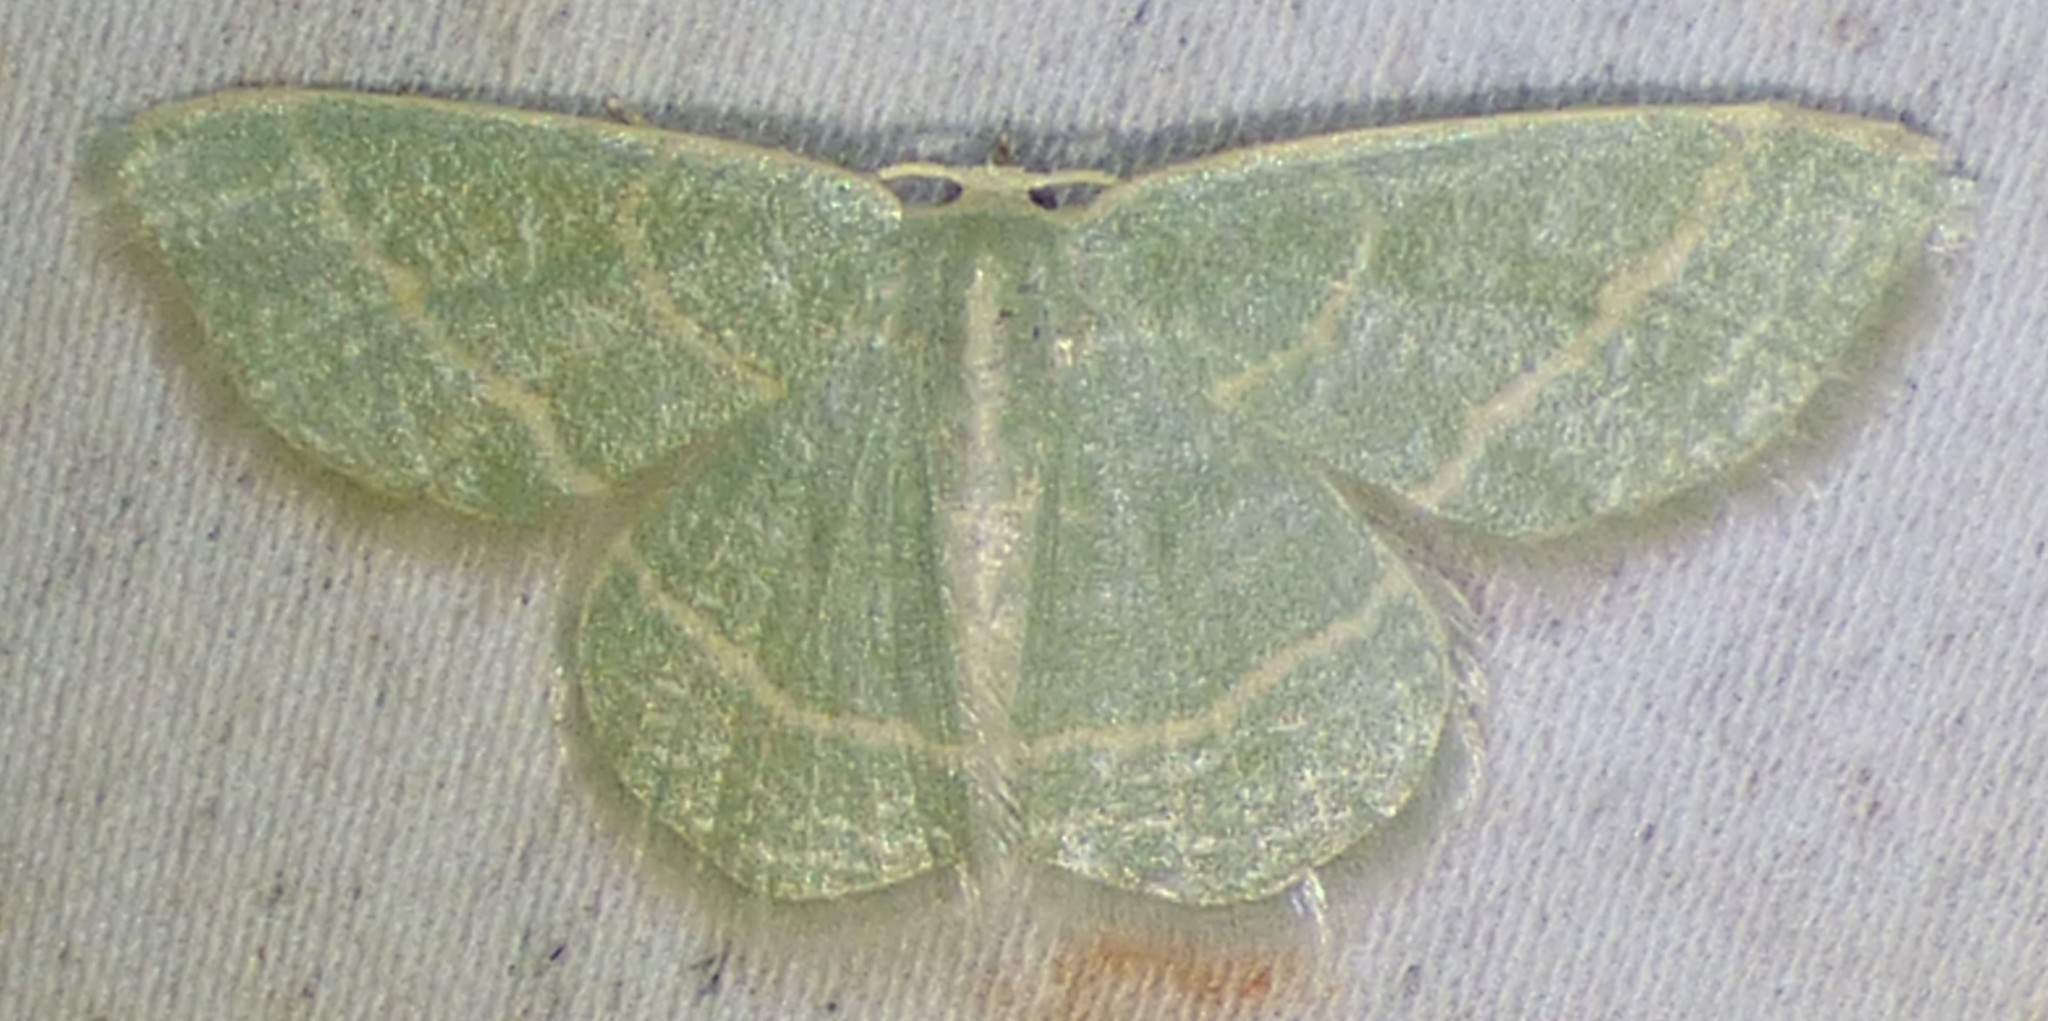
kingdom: Animalia
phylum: Arthropoda
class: Insecta
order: Lepidoptera
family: Geometridae
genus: Chlorochlamys
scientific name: Chlorochlamys chloroleucaria
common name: Blackberry looper
